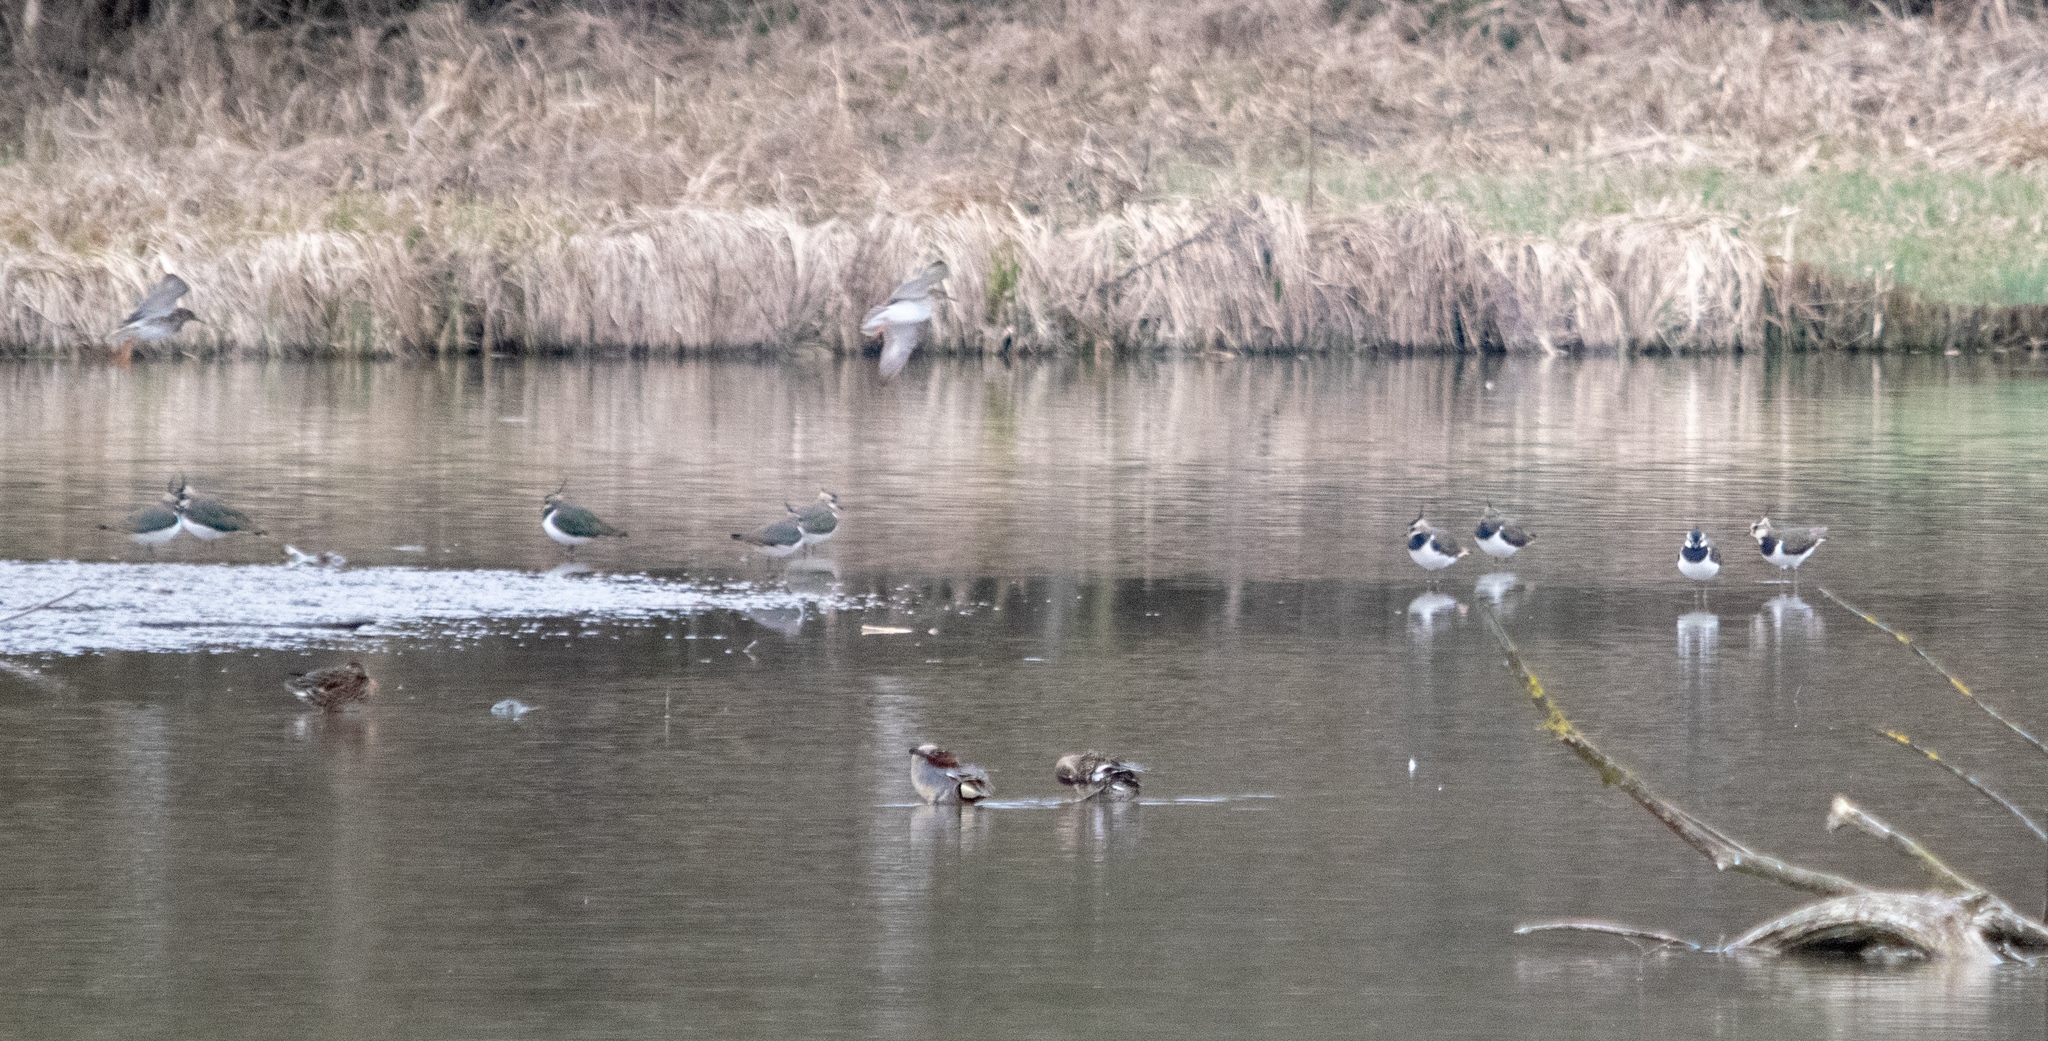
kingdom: Animalia
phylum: Chordata
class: Aves
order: Charadriiformes
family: Scolopacidae
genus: Calidris
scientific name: Calidris pugnax
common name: Ruff
